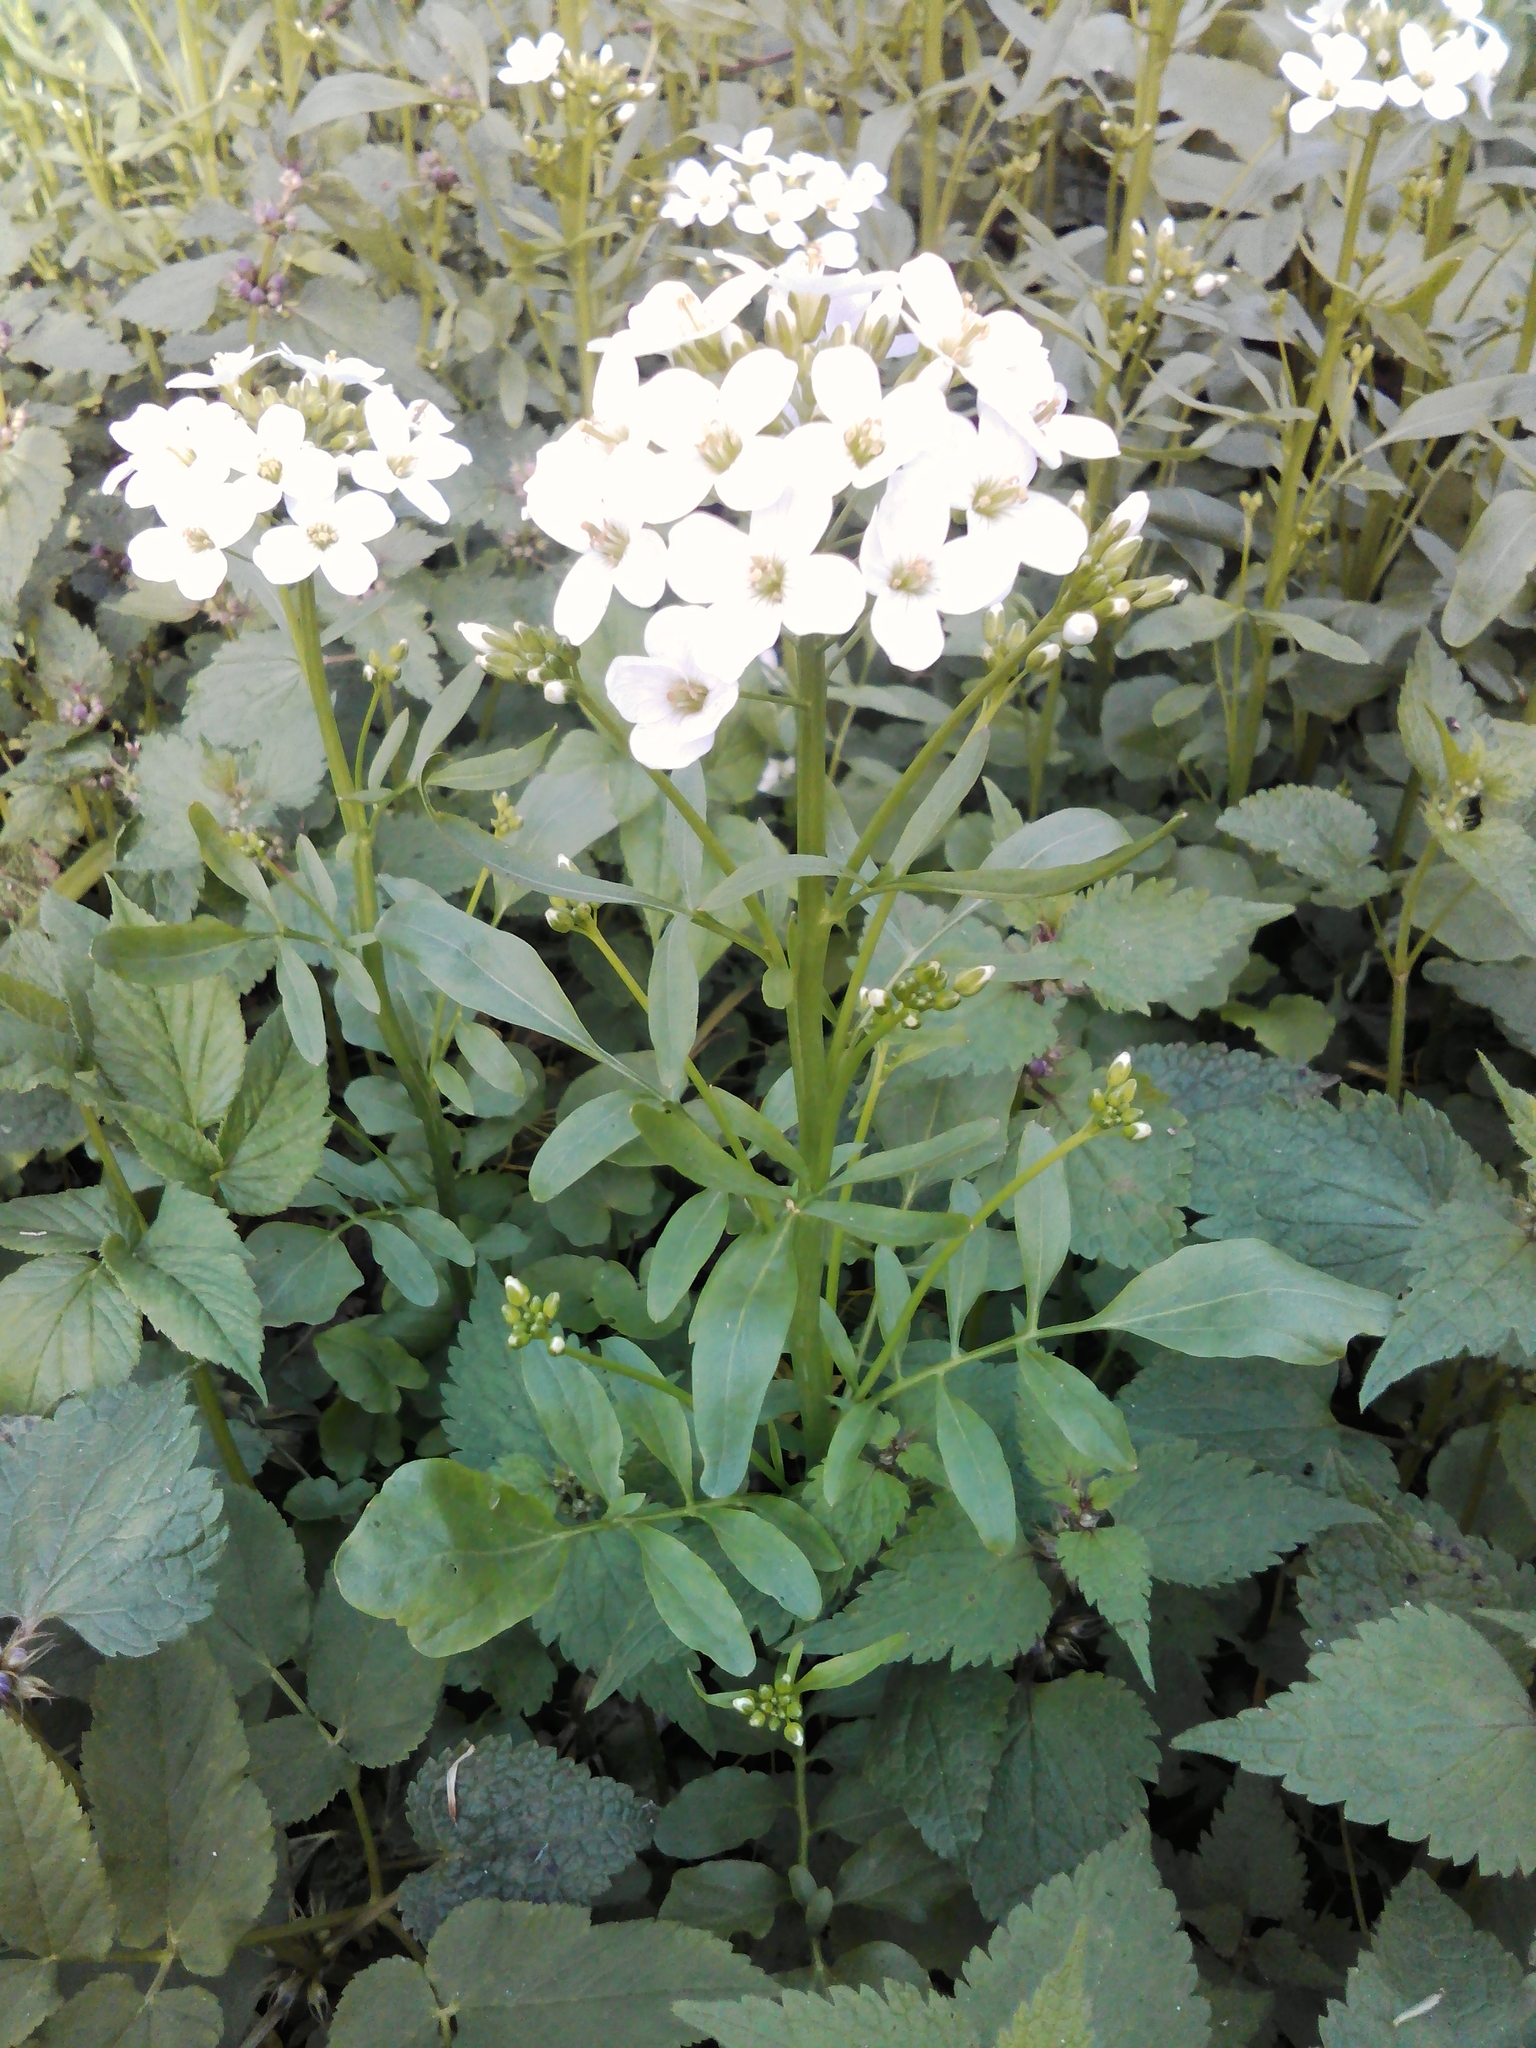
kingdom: Plantae
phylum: Tracheophyta
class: Magnoliopsida
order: Brassicales
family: Brassicaceae
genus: Cardamine
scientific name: Cardamine amara
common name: Large bitter-cress
